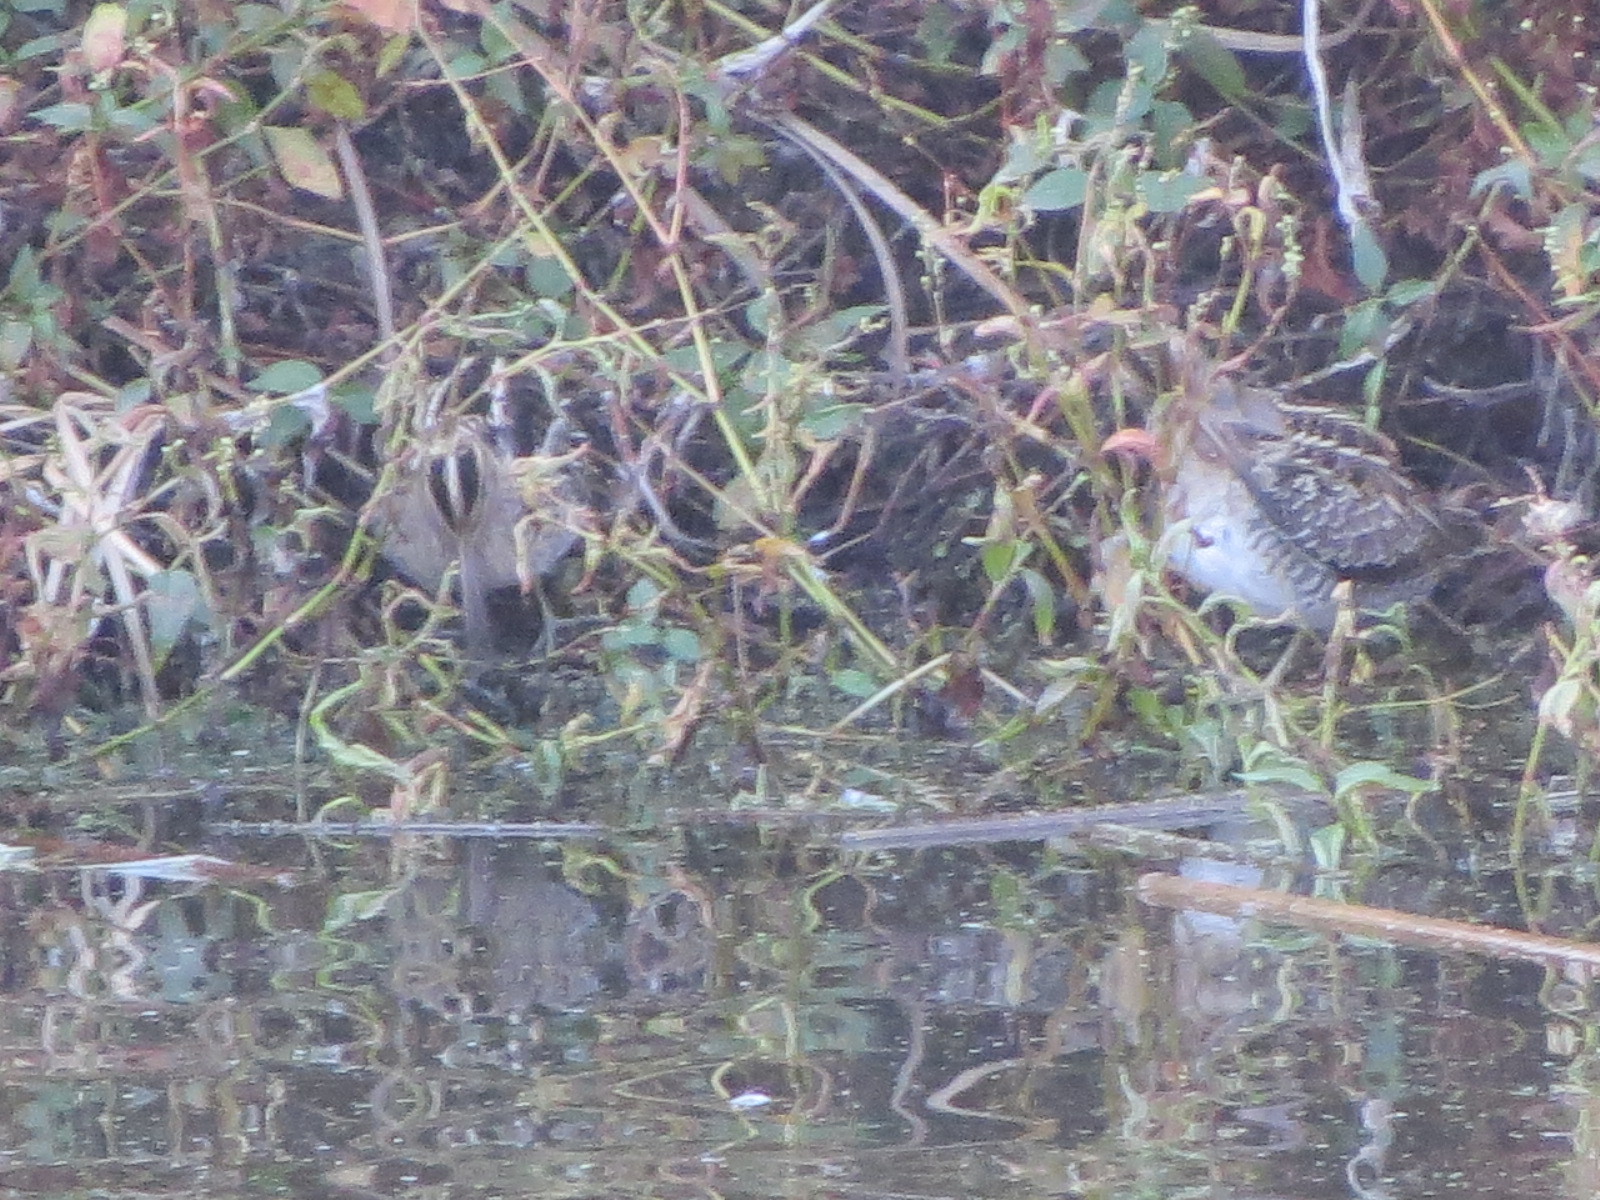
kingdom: Animalia
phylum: Chordata
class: Aves
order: Charadriiformes
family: Scolopacidae
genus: Gallinago
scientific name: Gallinago delicata
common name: Wilson's snipe
